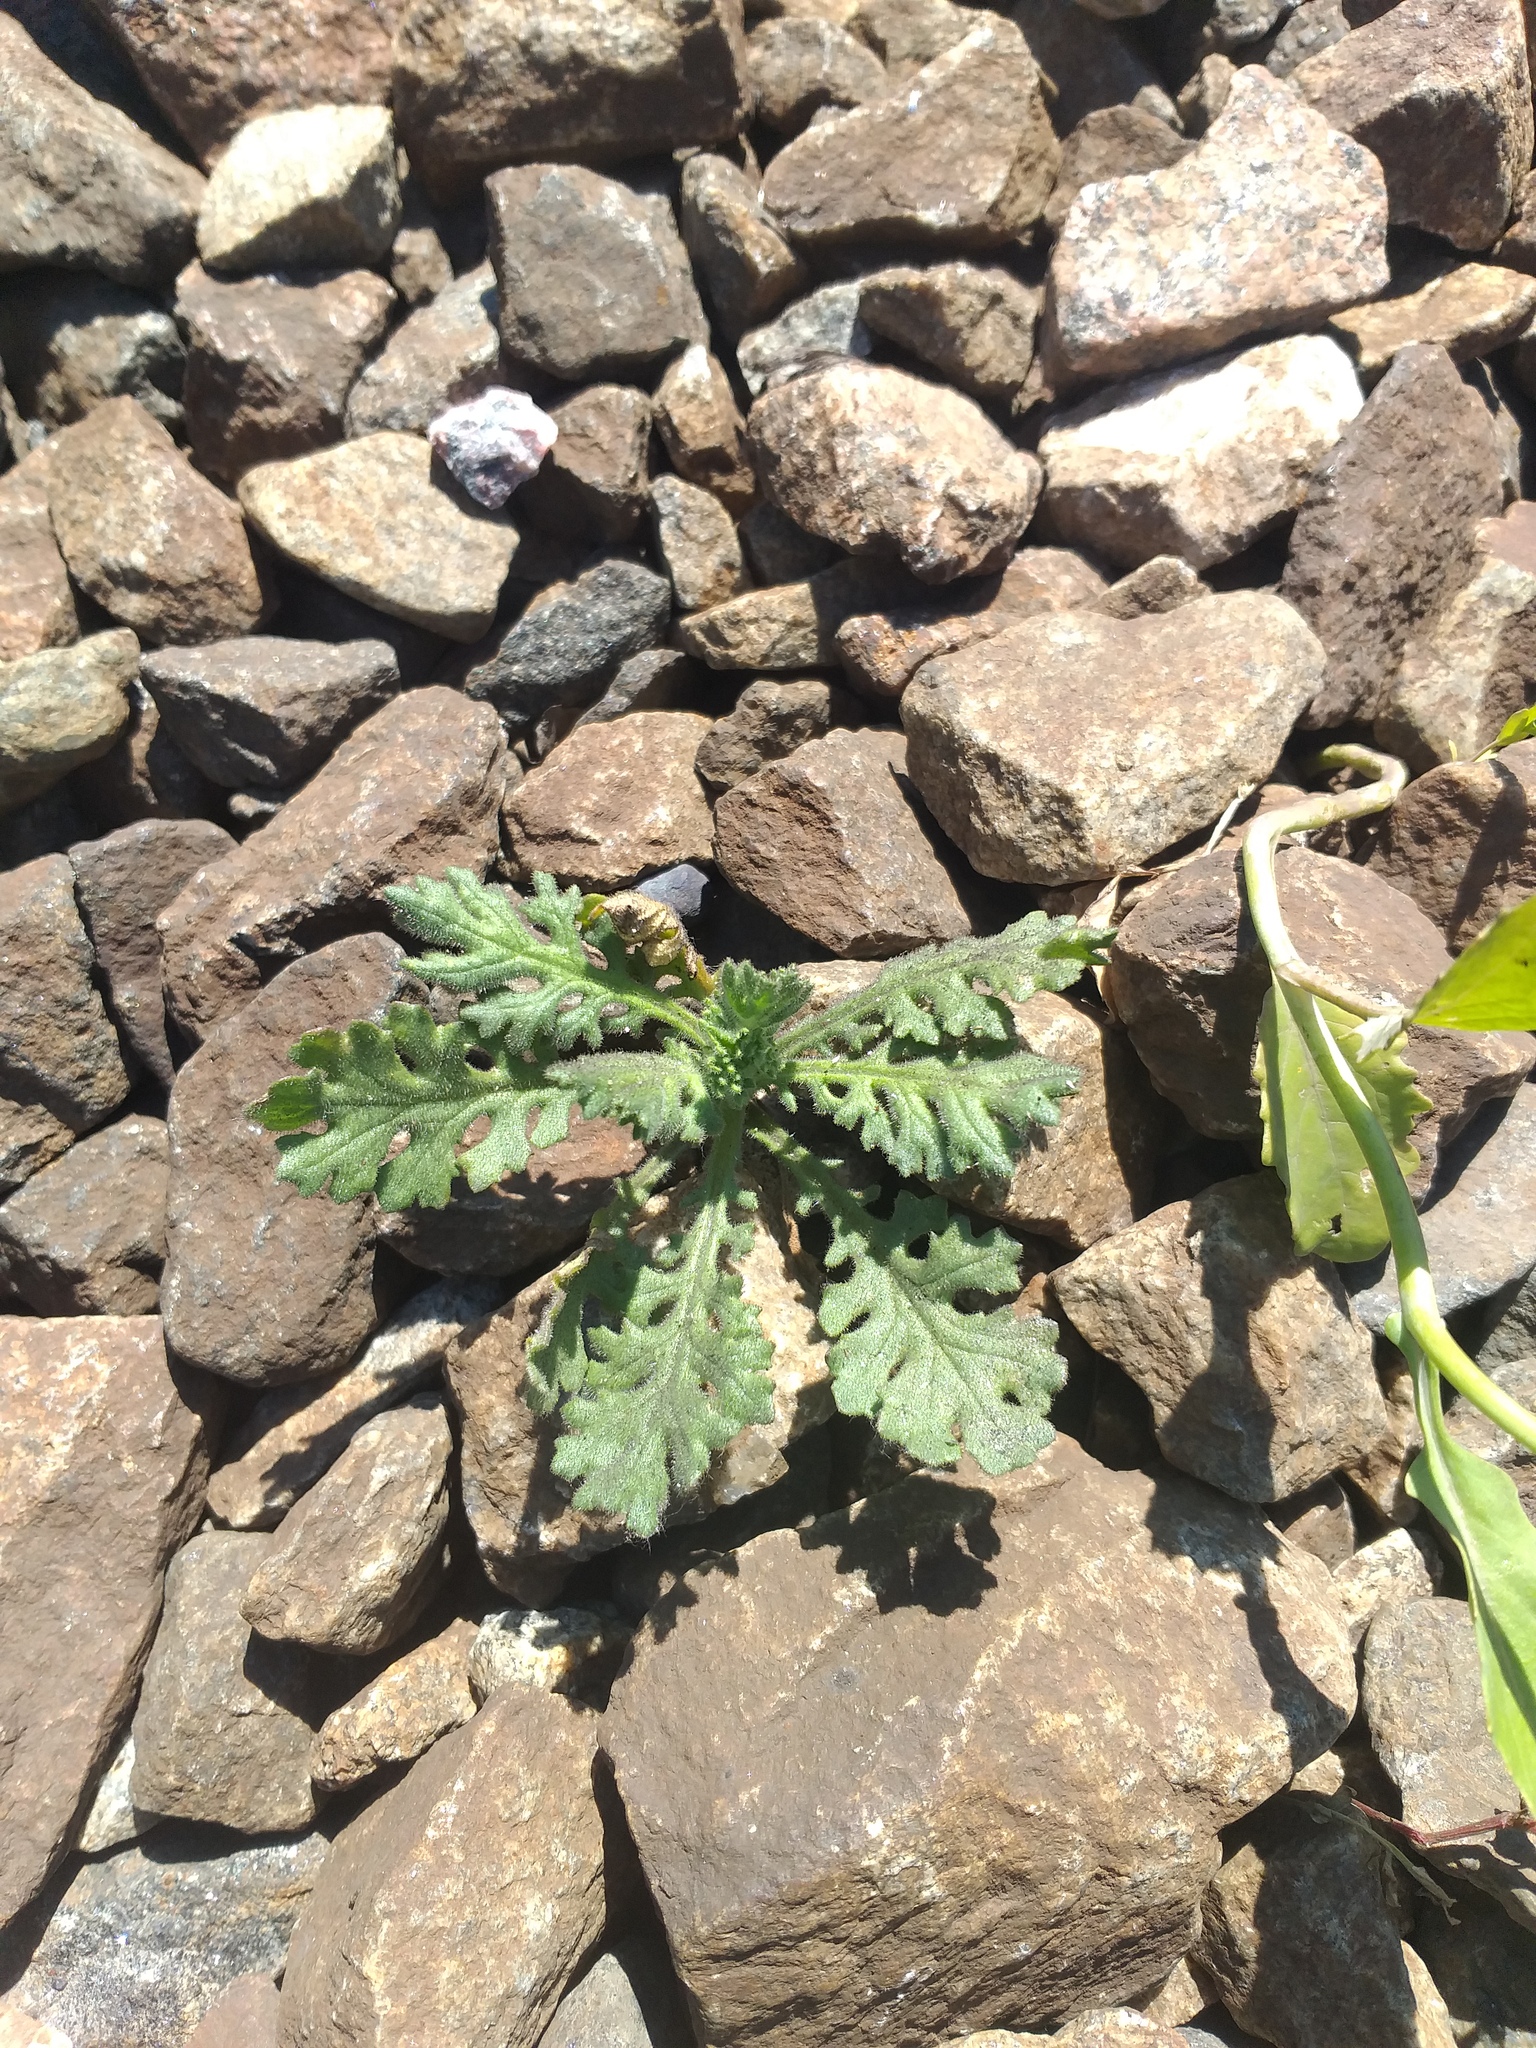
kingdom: Plantae
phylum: Tracheophyta
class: Magnoliopsida
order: Asterales
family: Asteraceae
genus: Senecio
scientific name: Senecio viscosus
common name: Sticky groundsel
